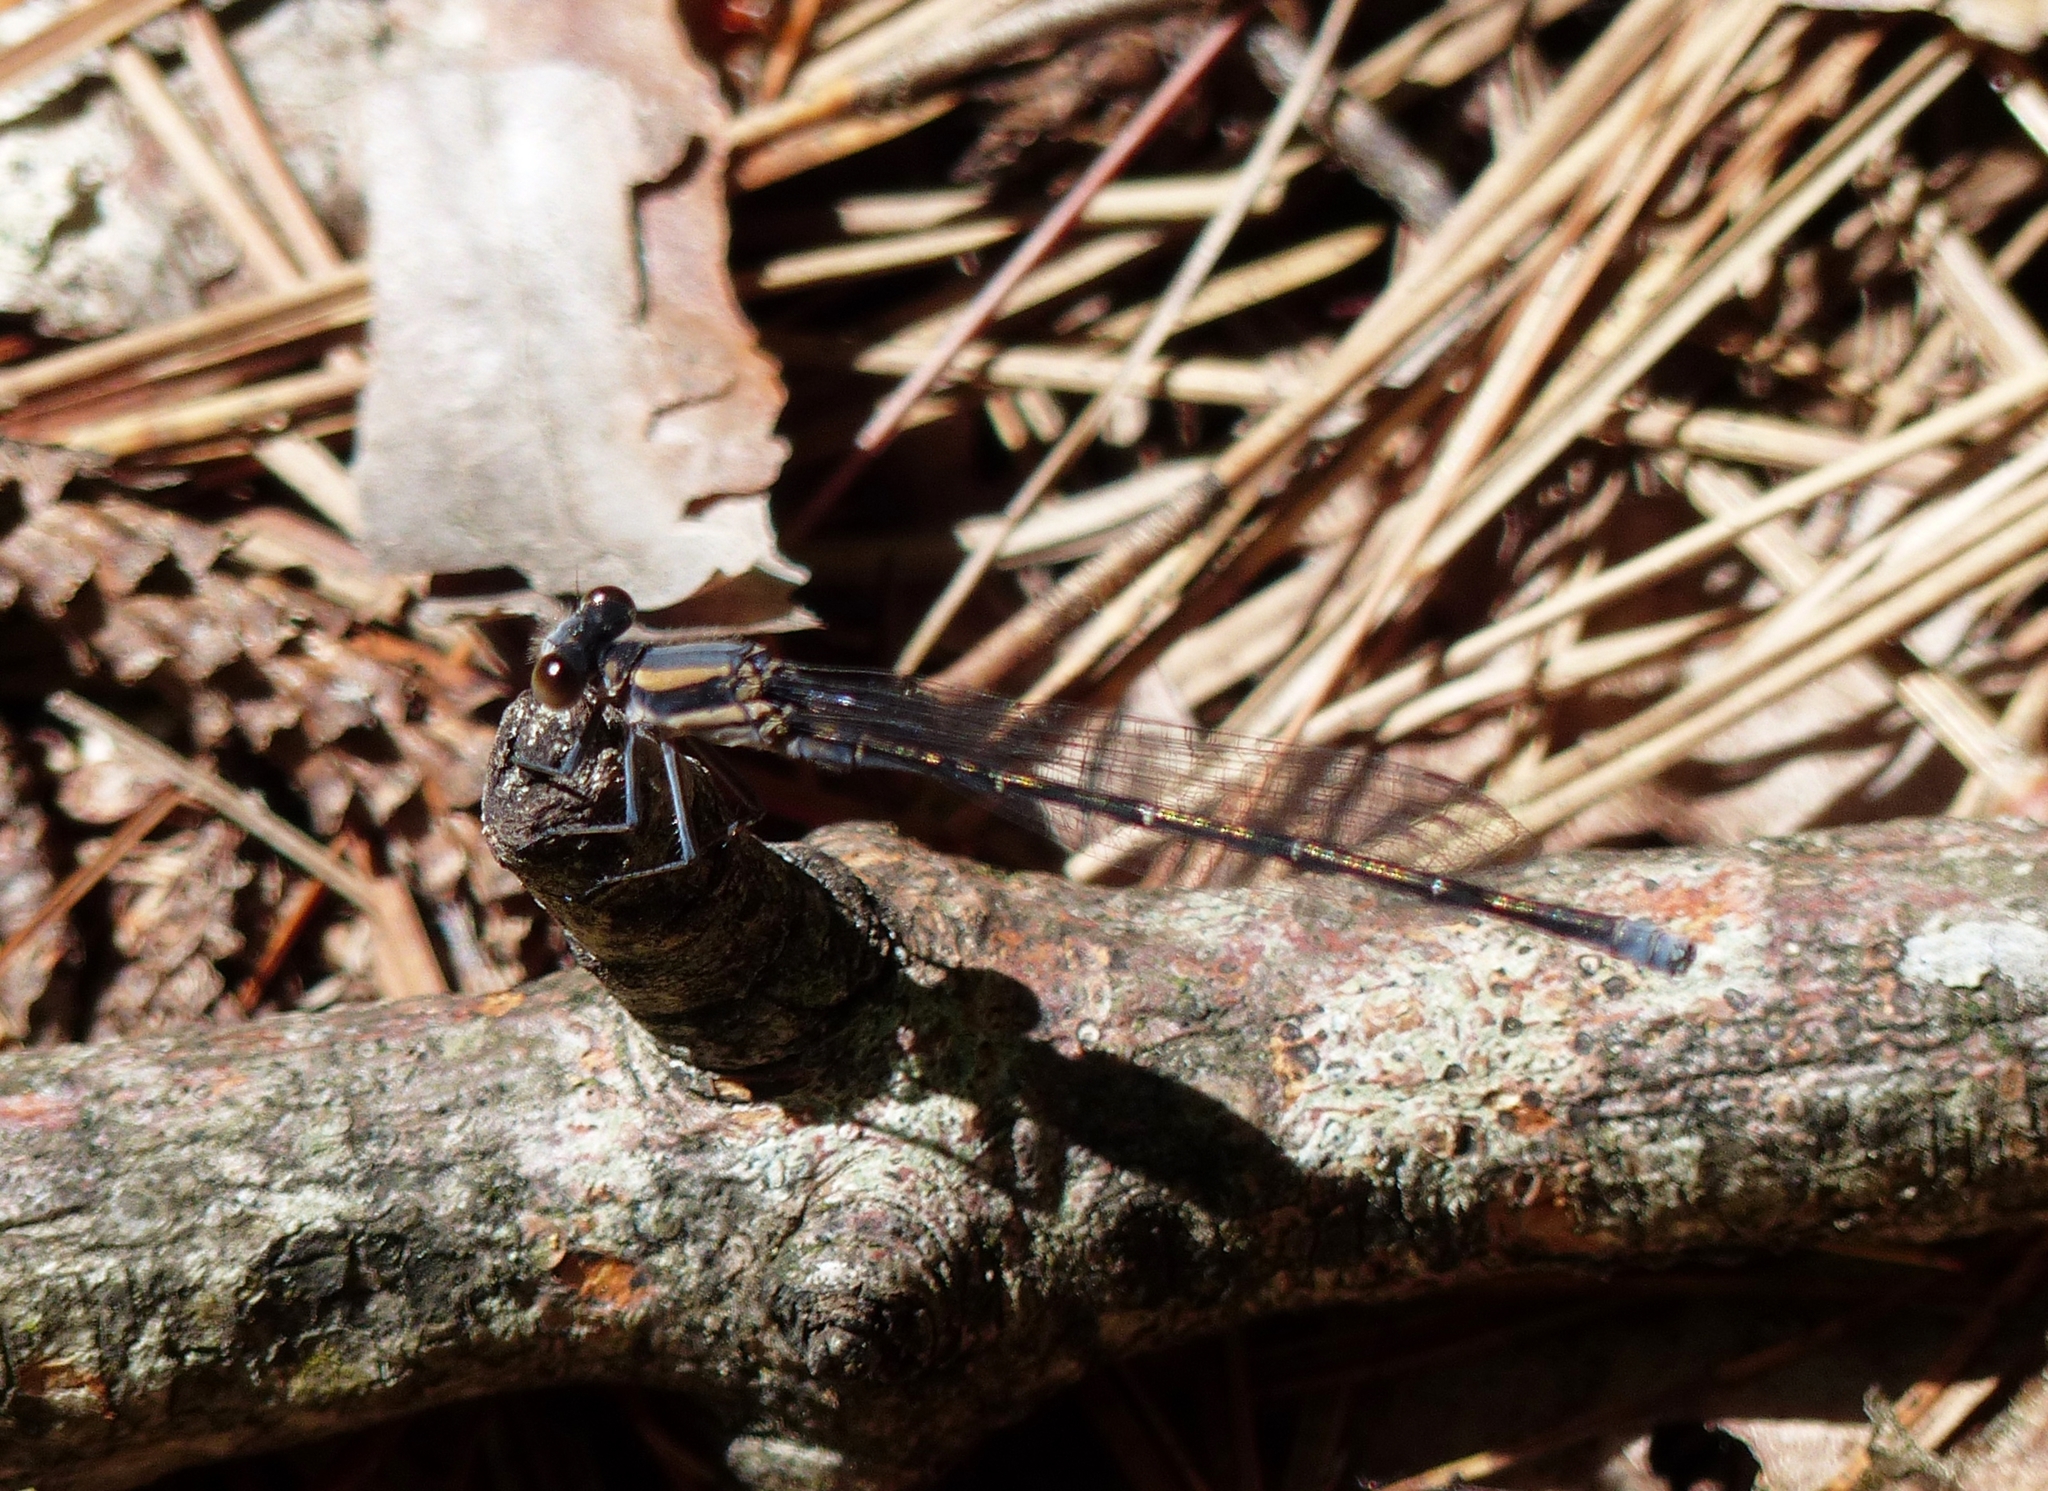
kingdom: Animalia
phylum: Arthropoda
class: Insecta
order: Odonata
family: Coenagrionidae
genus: Argia
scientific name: Argia moesta
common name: Powdered dancer
